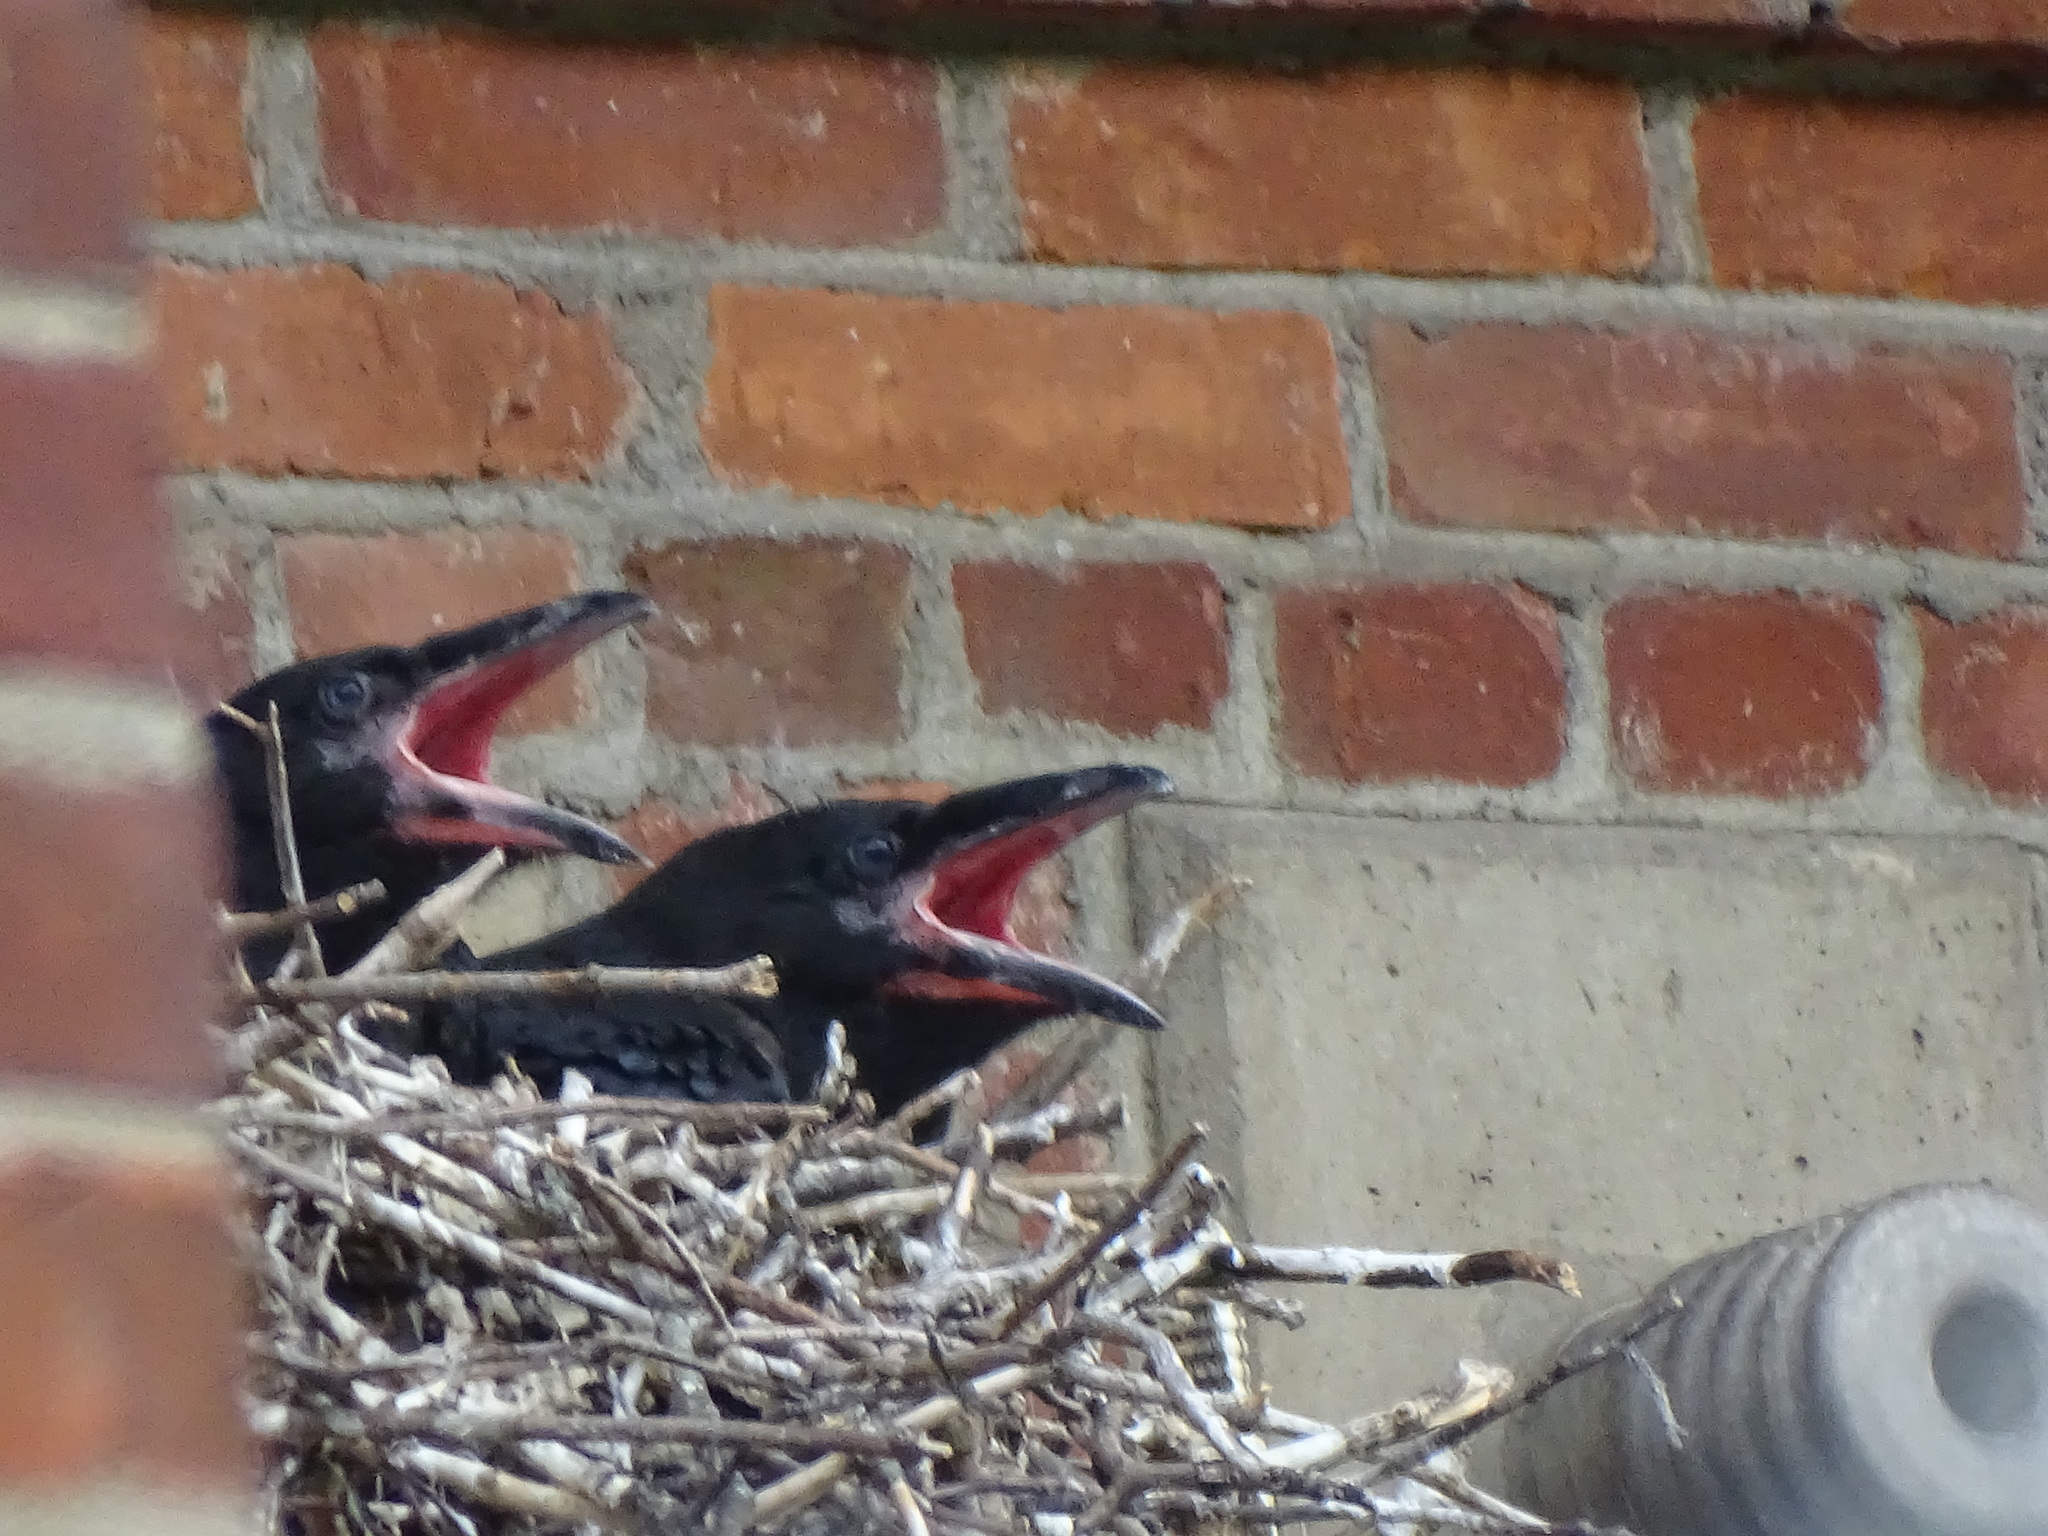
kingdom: Animalia
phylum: Chordata
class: Aves
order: Passeriformes
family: Corvidae
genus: Corvus
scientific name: Corvus corax
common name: Common raven
